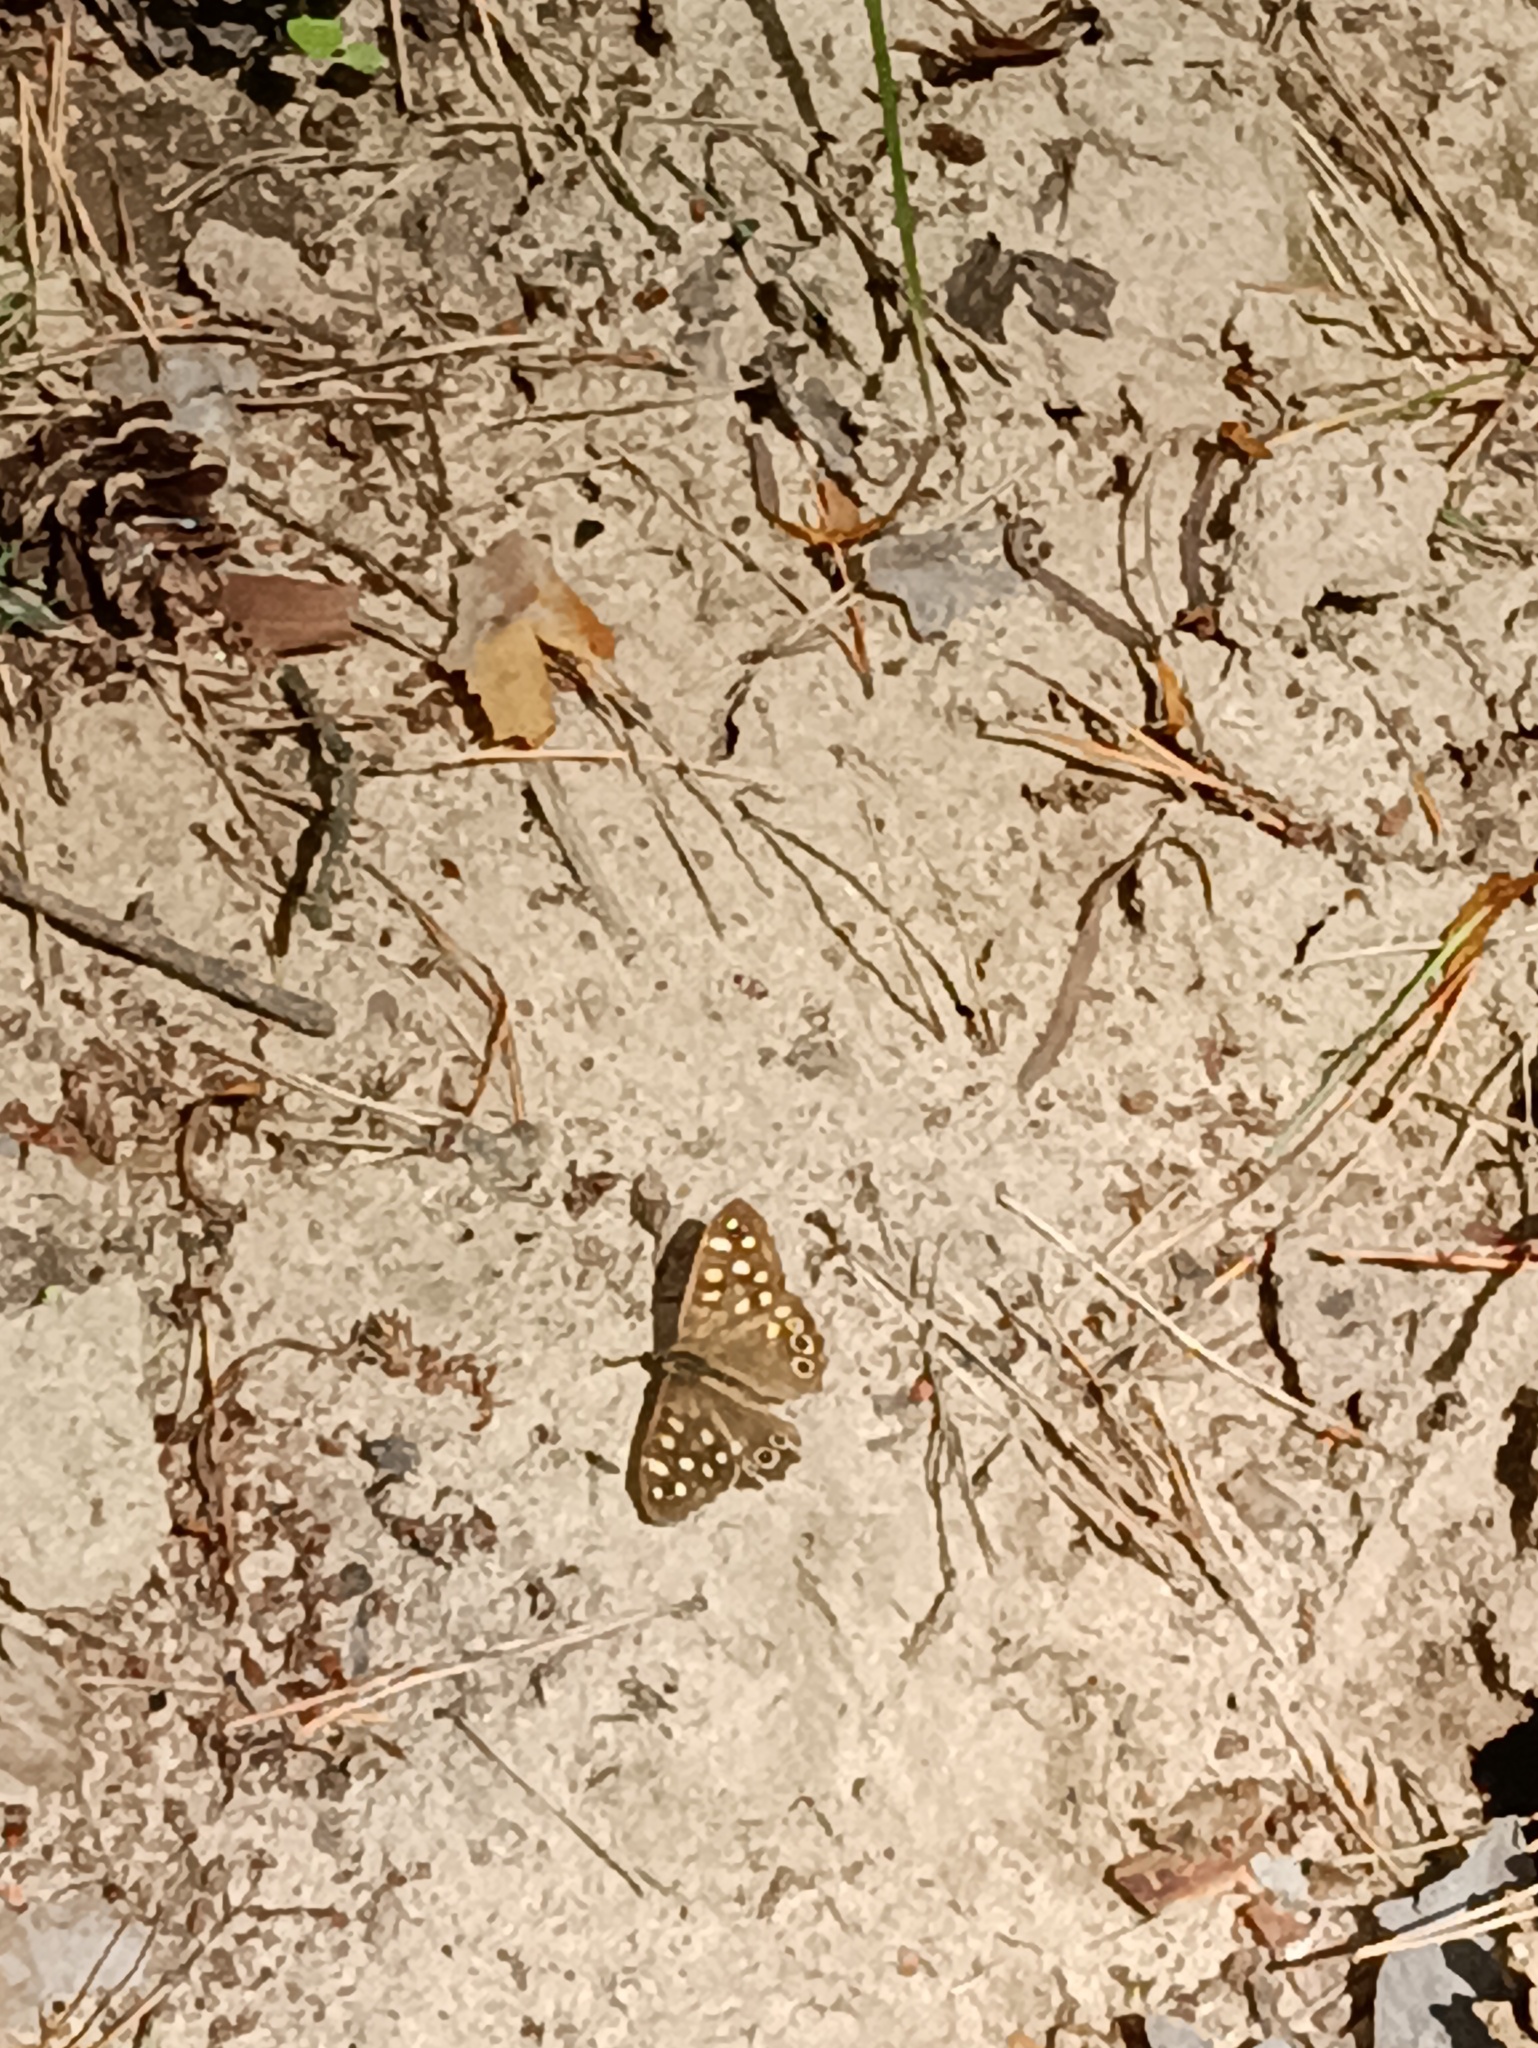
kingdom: Animalia
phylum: Arthropoda
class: Insecta
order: Lepidoptera
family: Nymphalidae
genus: Pararge
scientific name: Pararge aegeria
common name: Speckled wood
